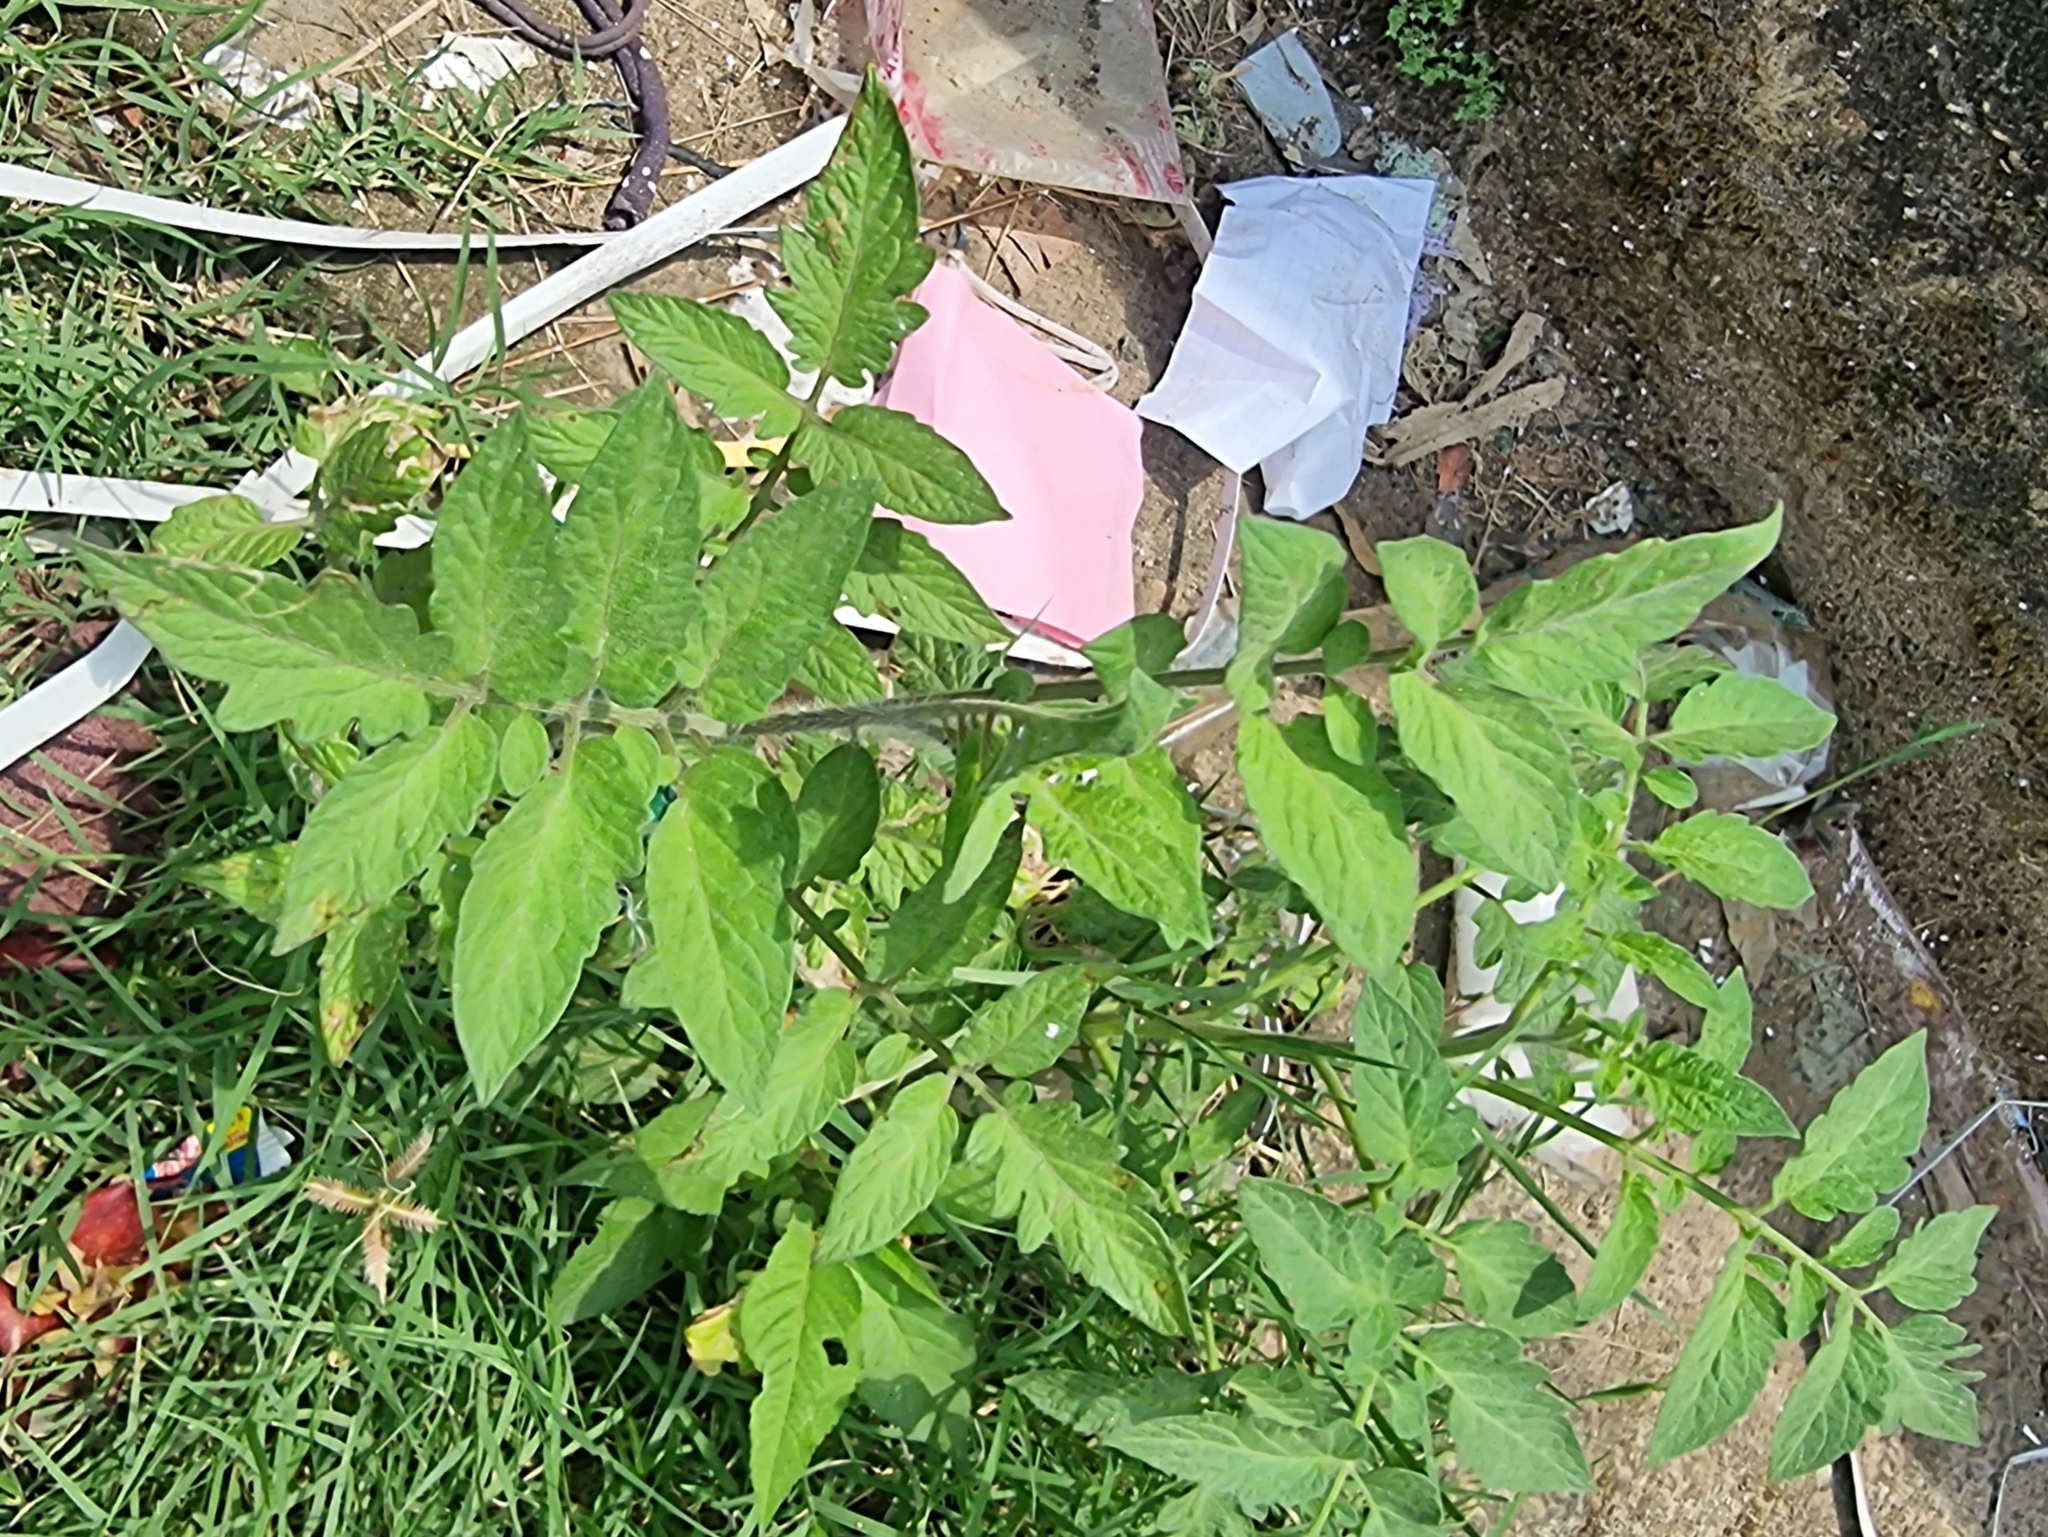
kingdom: Plantae
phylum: Tracheophyta
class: Magnoliopsida
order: Solanales
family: Solanaceae
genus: Solanum
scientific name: Solanum lycopersicum
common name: Garden tomato
